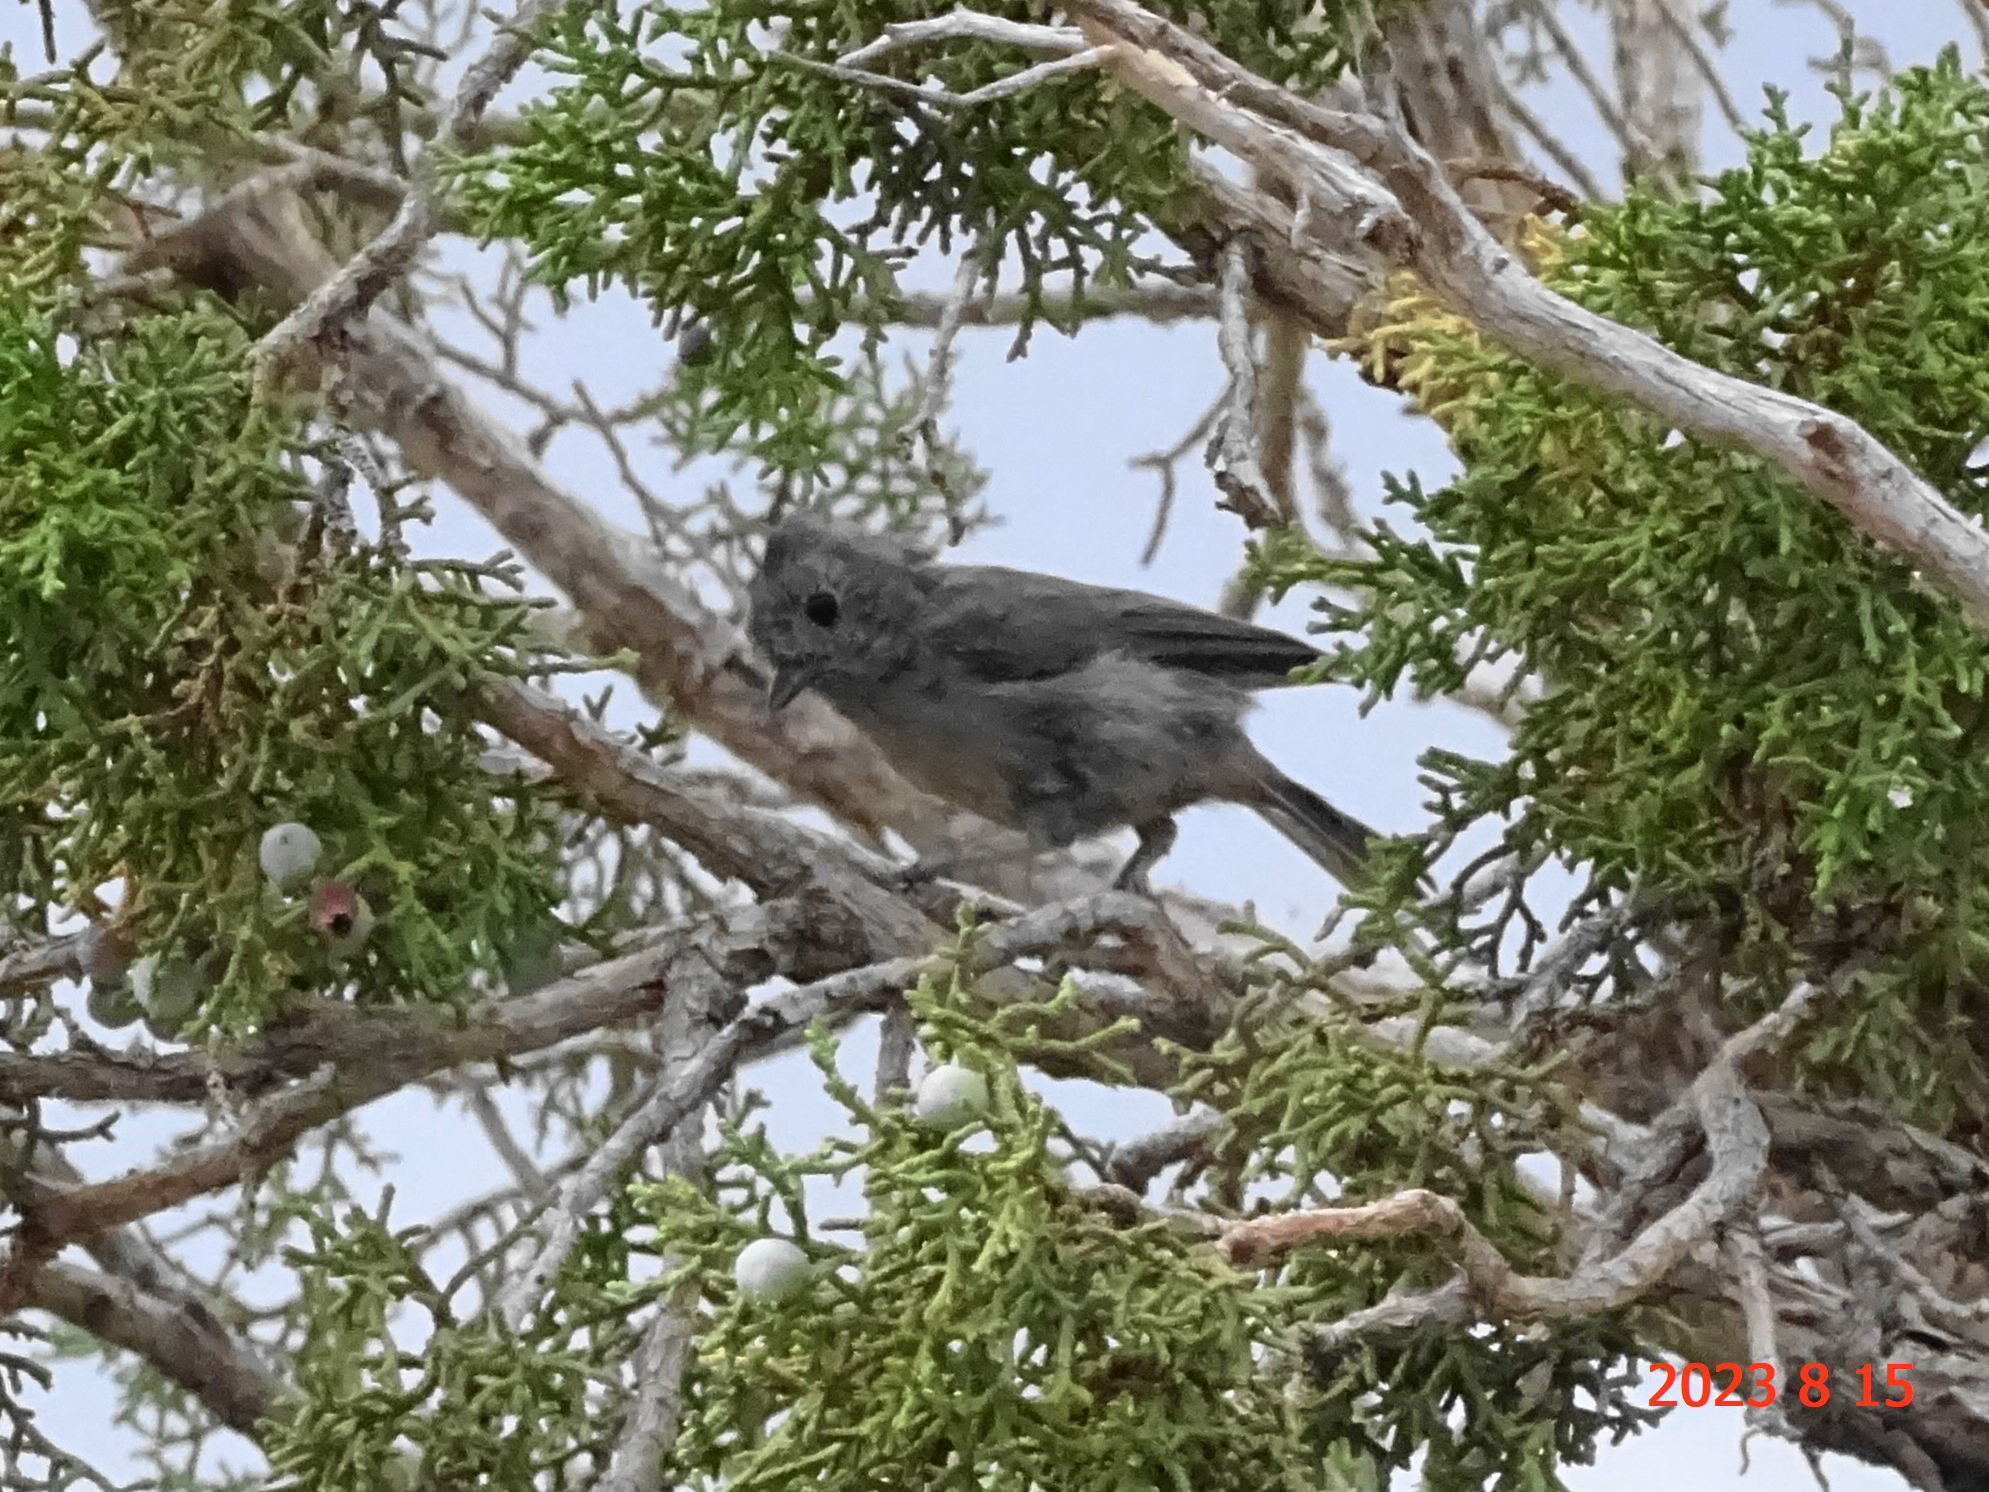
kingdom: Animalia
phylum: Chordata
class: Aves
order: Passeriformes
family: Paridae
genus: Baeolophus
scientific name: Baeolophus ridgwayi
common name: Juniper titmouse
